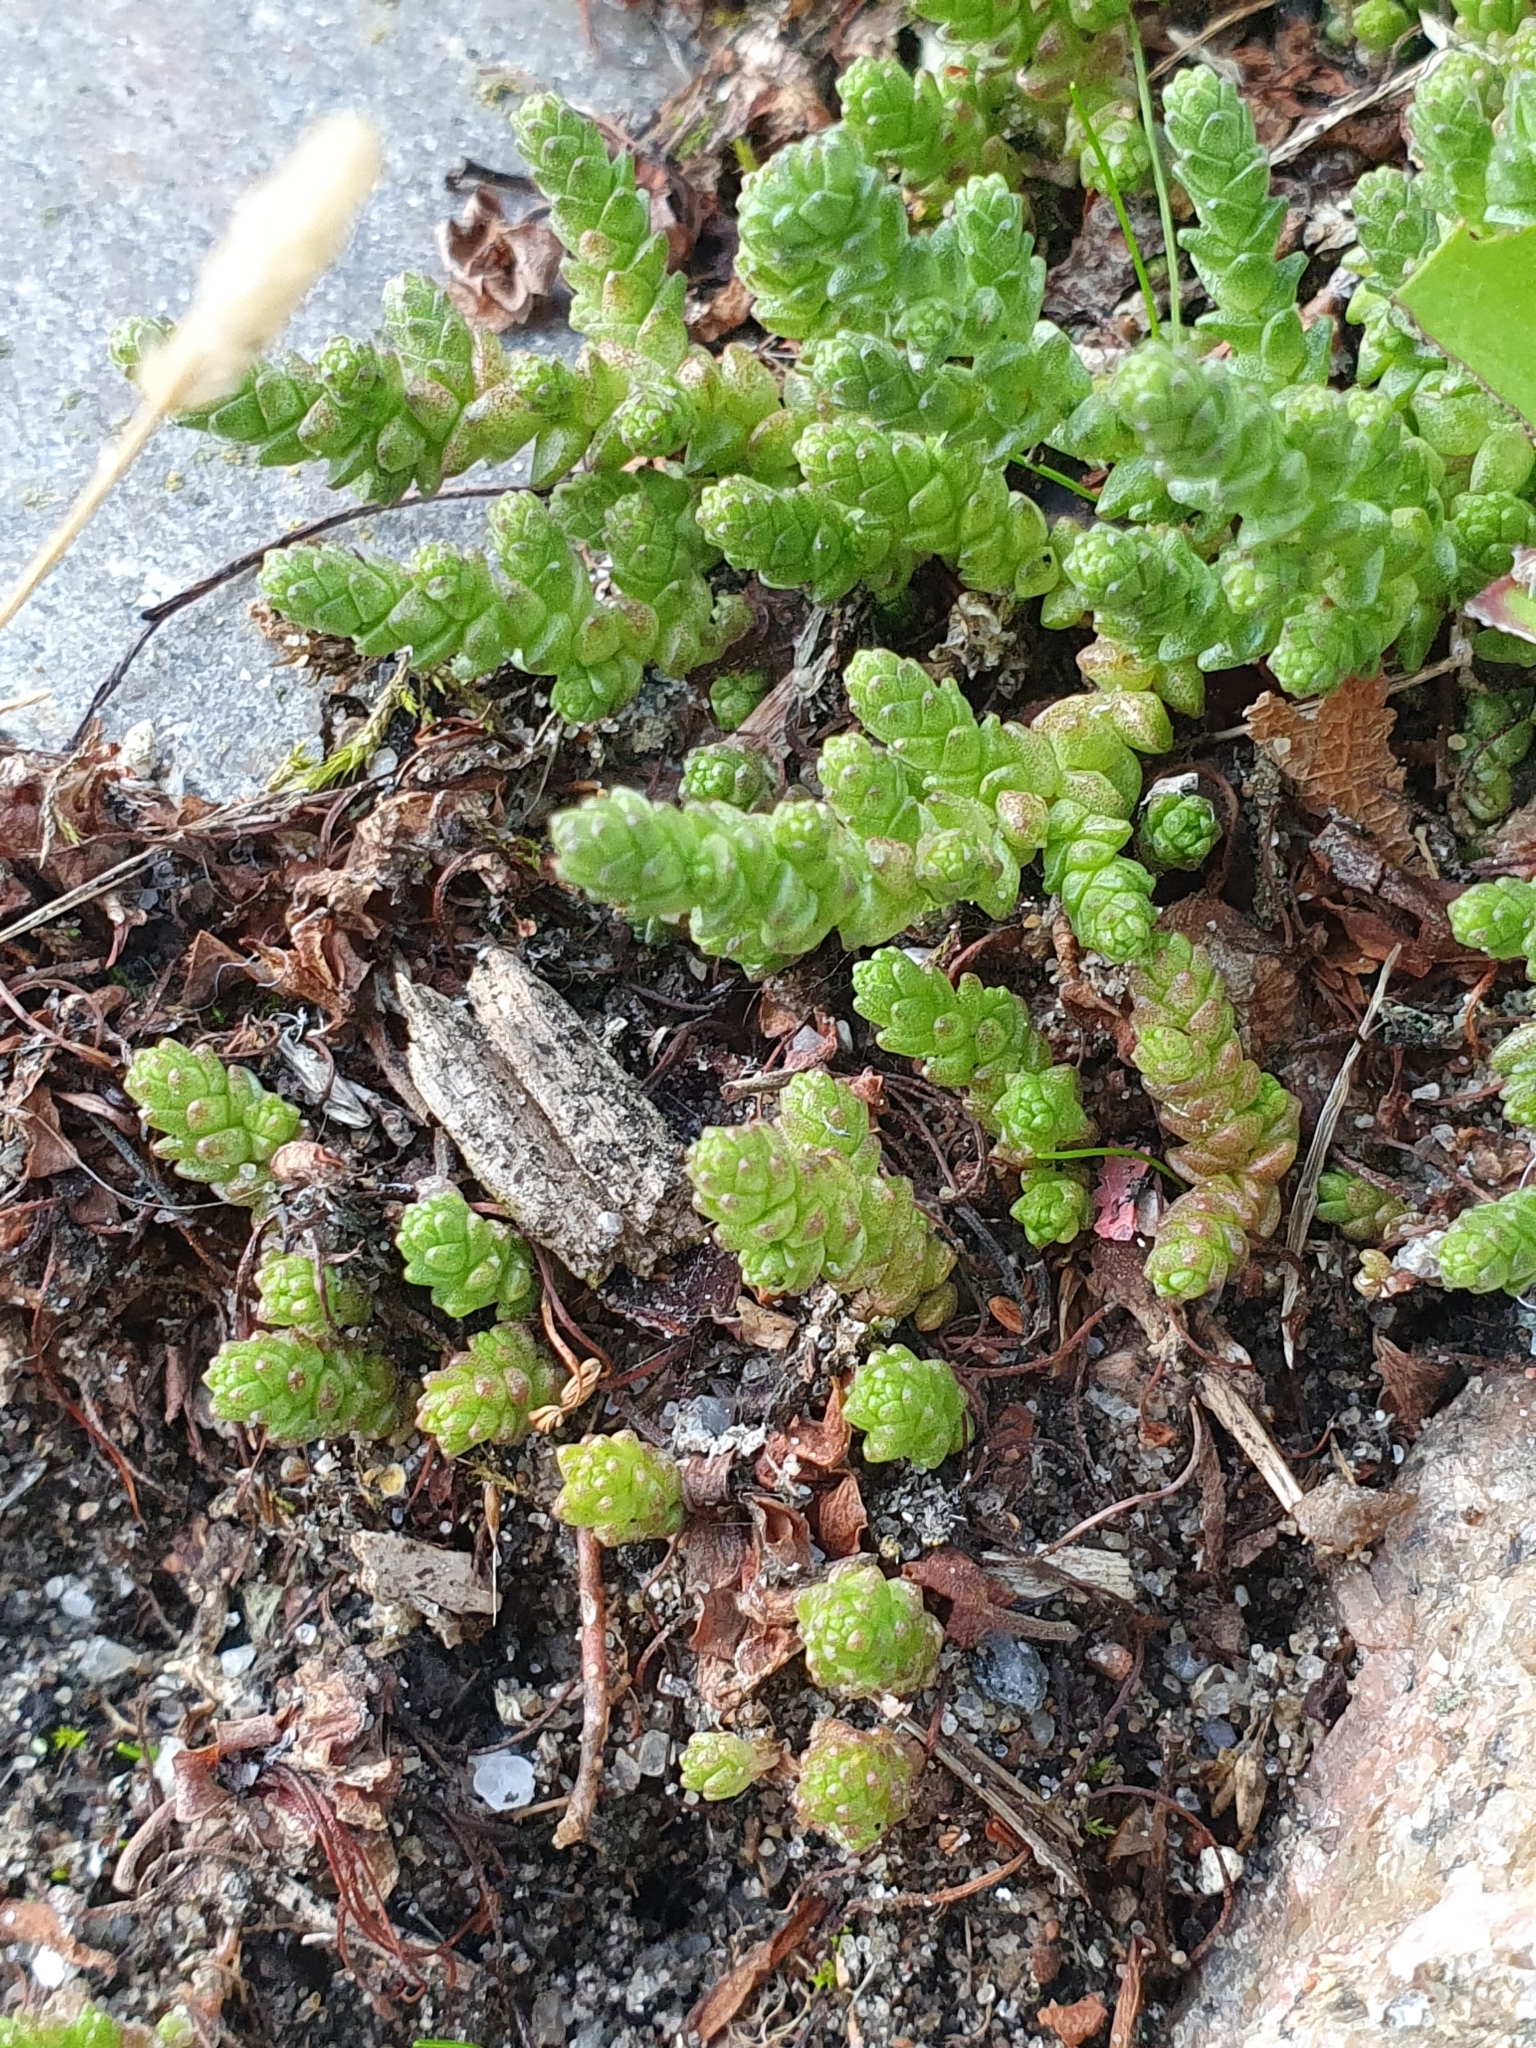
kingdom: Plantae
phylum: Tracheophyta
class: Magnoliopsida
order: Saxifragales
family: Crassulaceae
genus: Sedum
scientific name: Sedum acre
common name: Biting stonecrop
